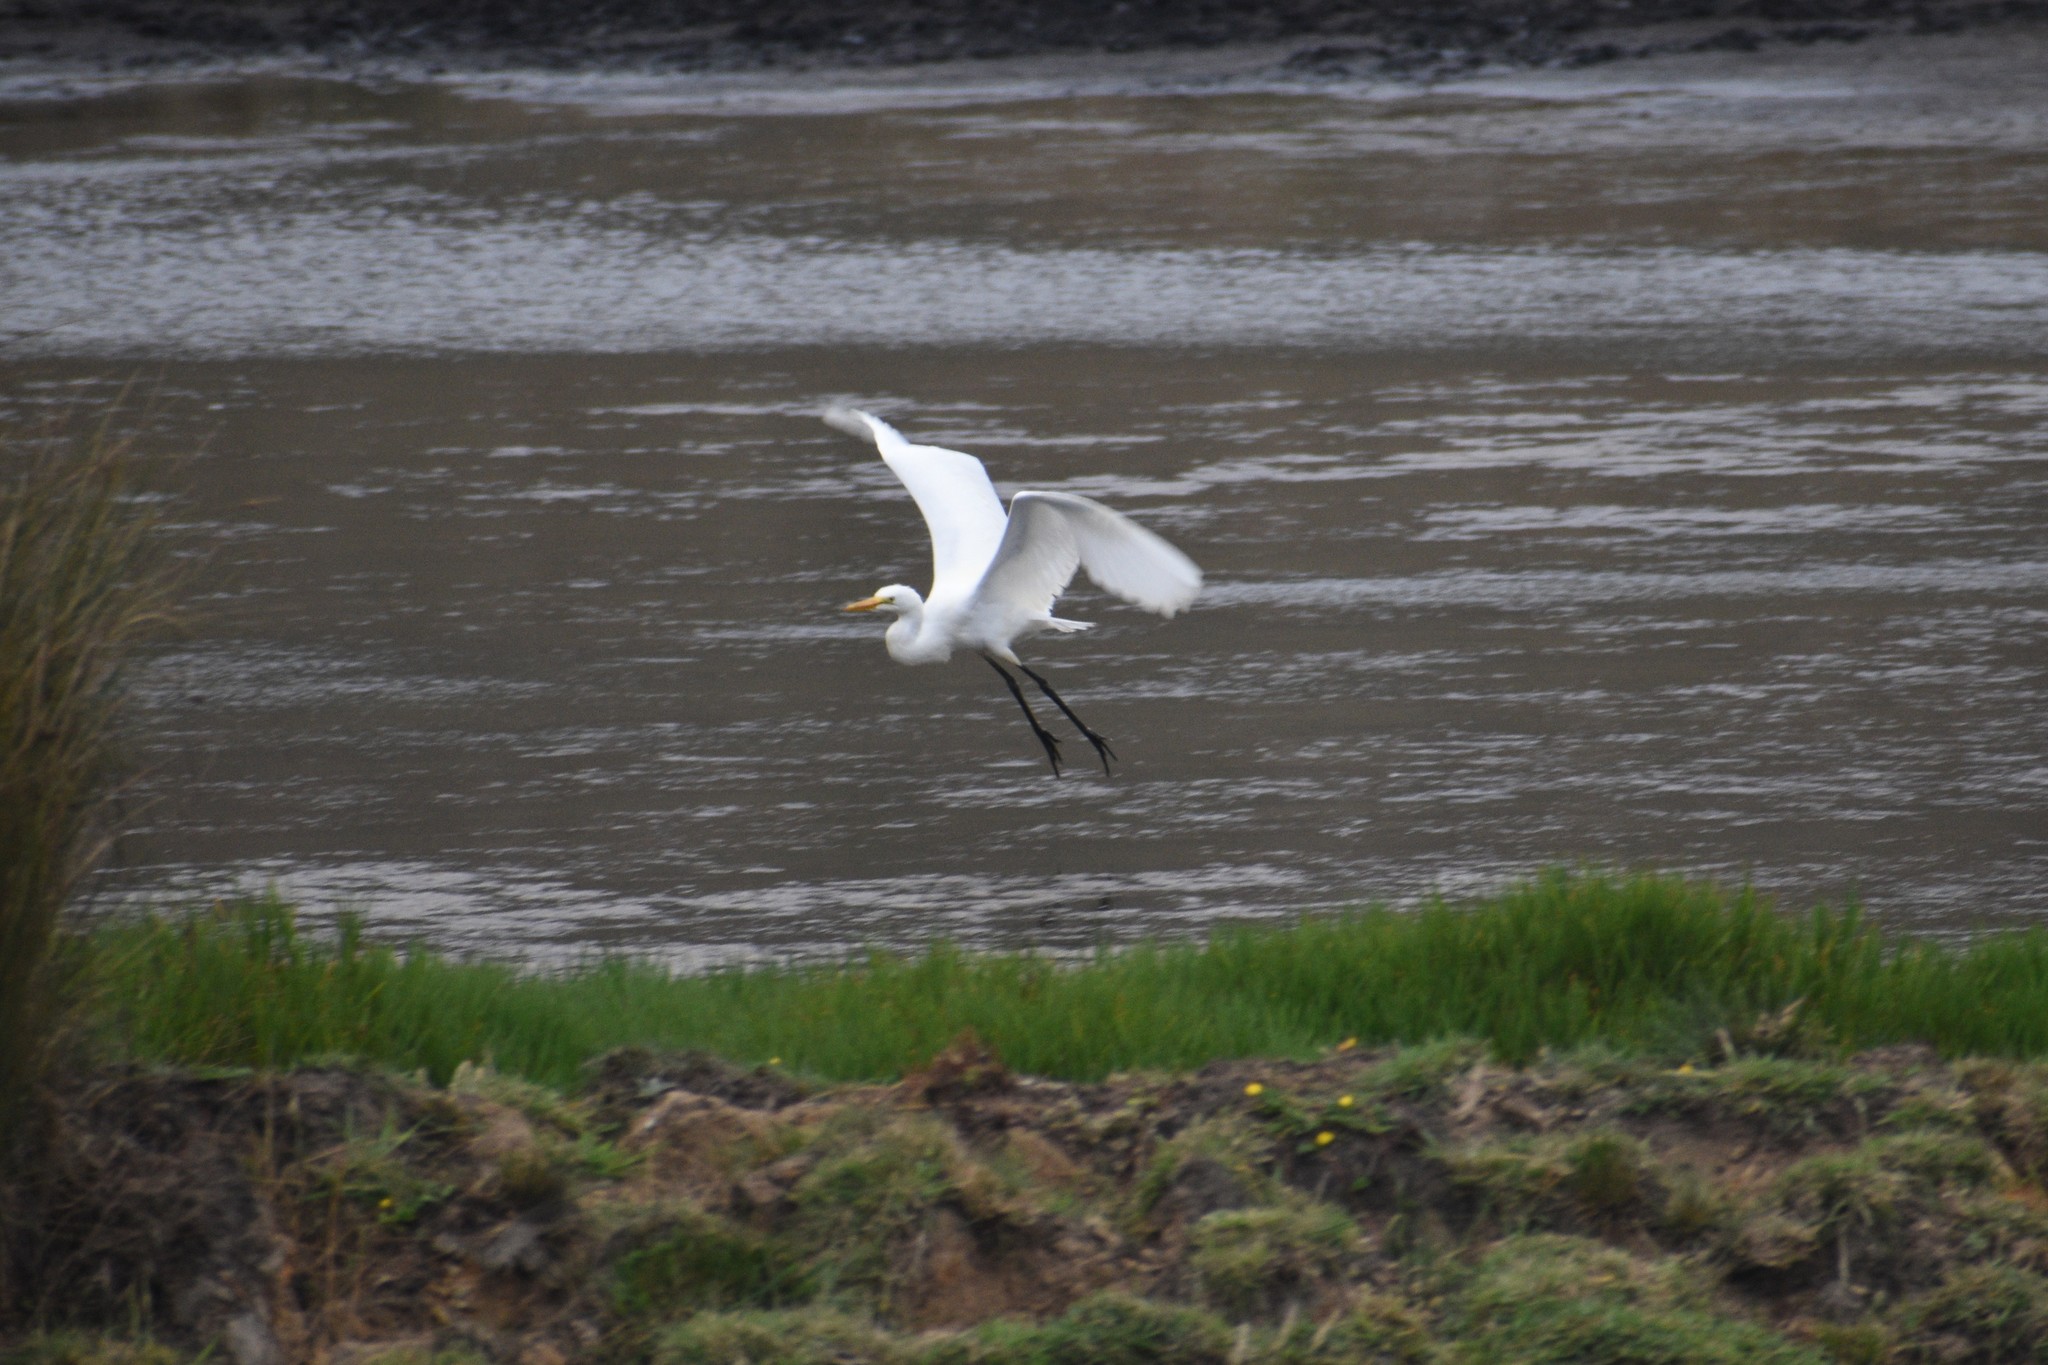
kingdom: Animalia
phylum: Chordata
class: Aves
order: Pelecaniformes
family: Ardeidae
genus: Ardea
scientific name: Ardea alba
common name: Great egret
